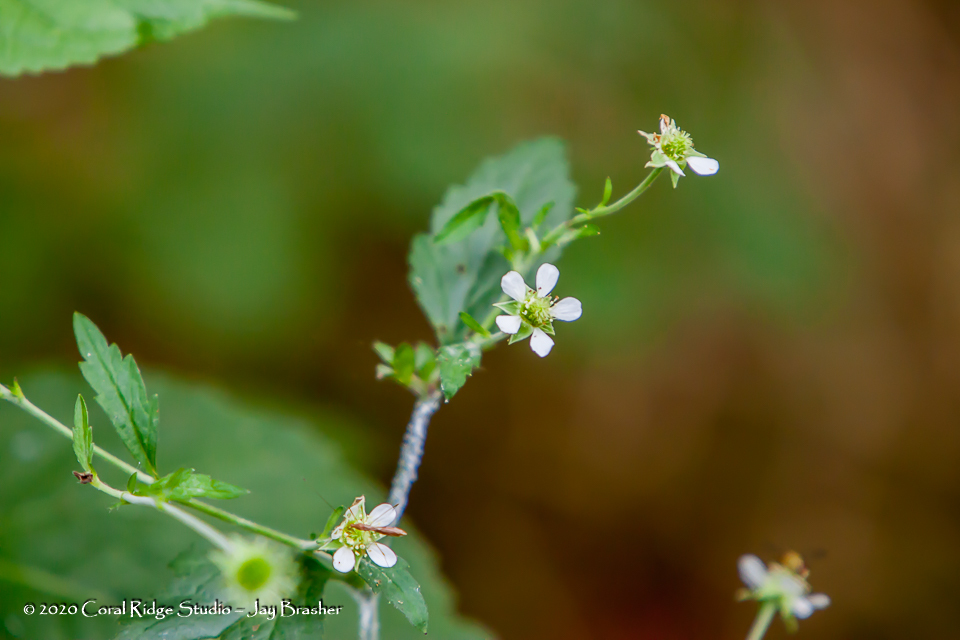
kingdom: Plantae
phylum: Tracheophyta
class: Magnoliopsida
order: Rosales
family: Rosaceae
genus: Geum
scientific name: Geum canadense
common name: White avens
